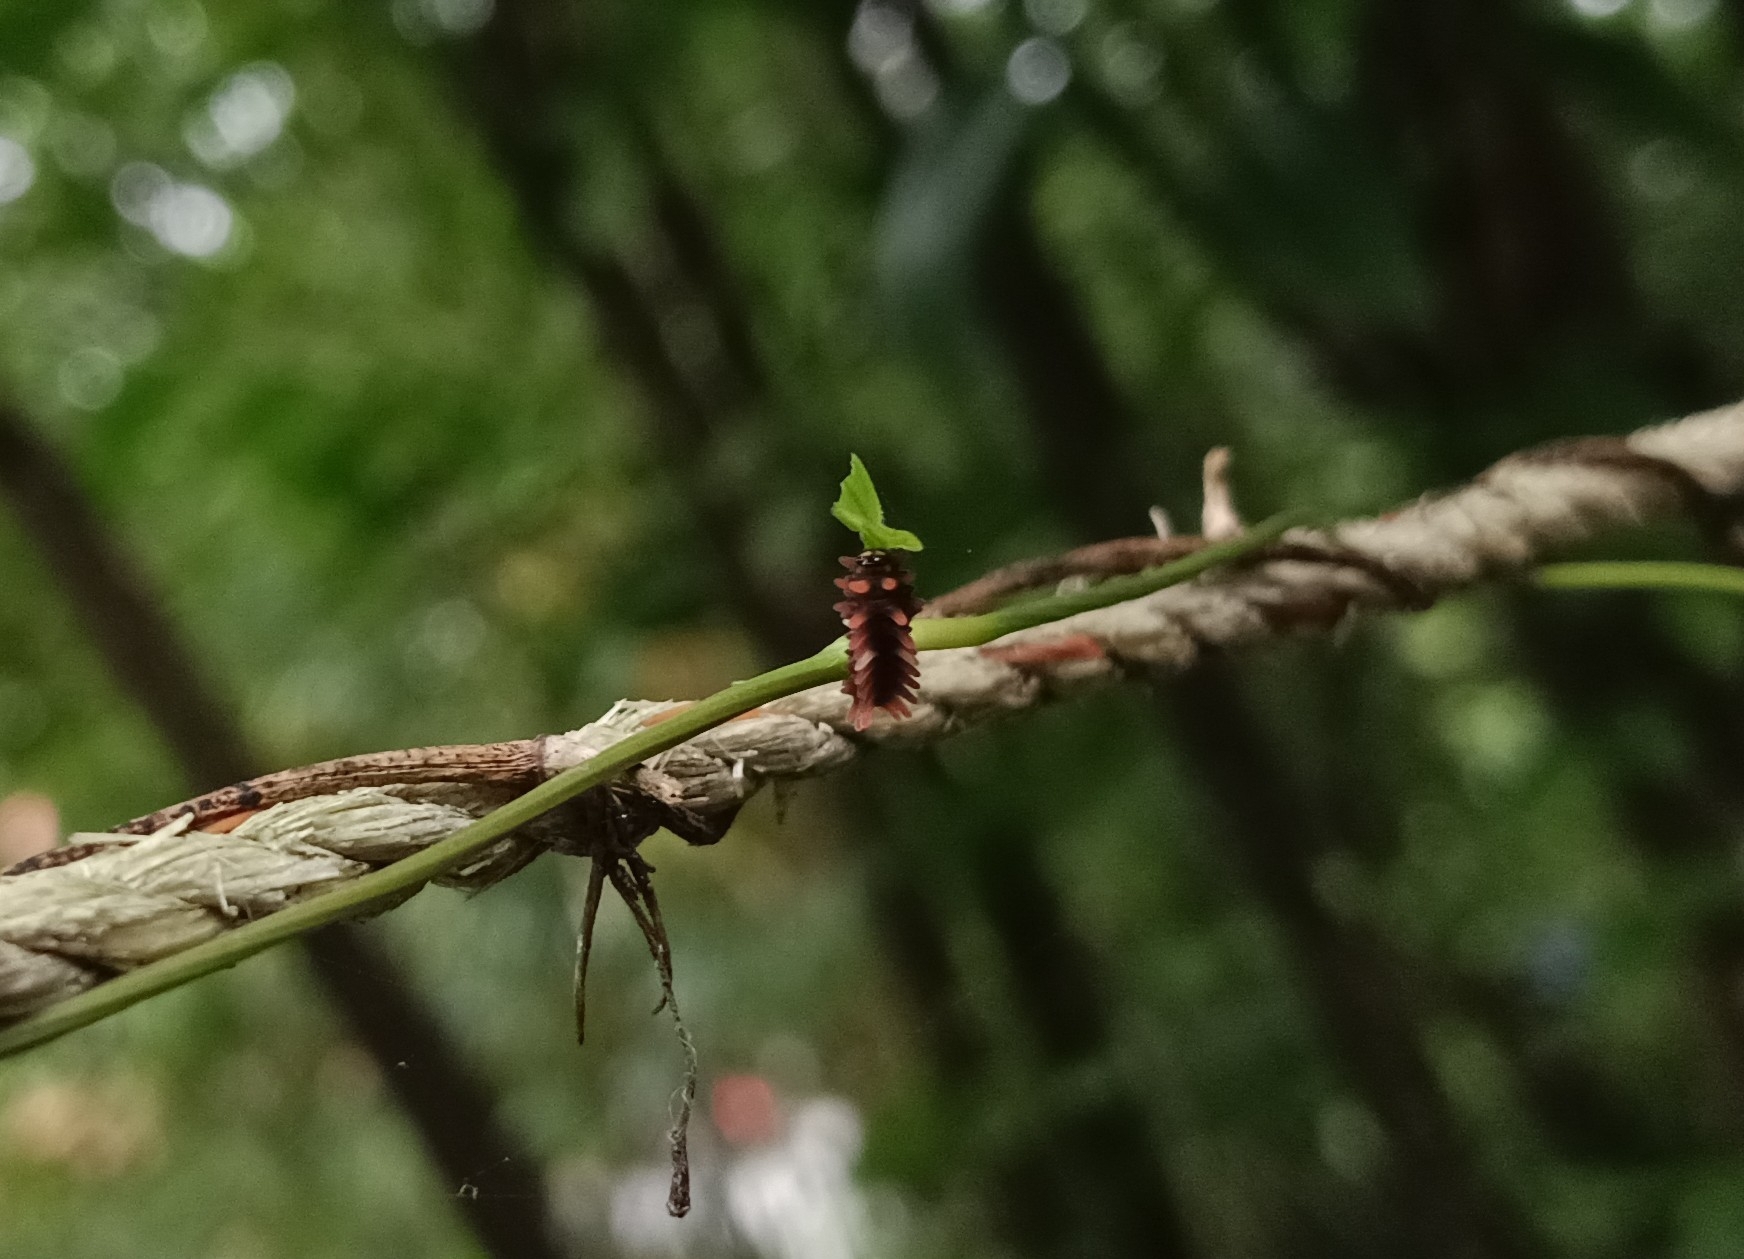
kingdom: Animalia
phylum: Arthropoda
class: Insecta
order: Lepidoptera
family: Papilionidae
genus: Pachliopta
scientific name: Pachliopta aristolochiae
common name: Common rose
